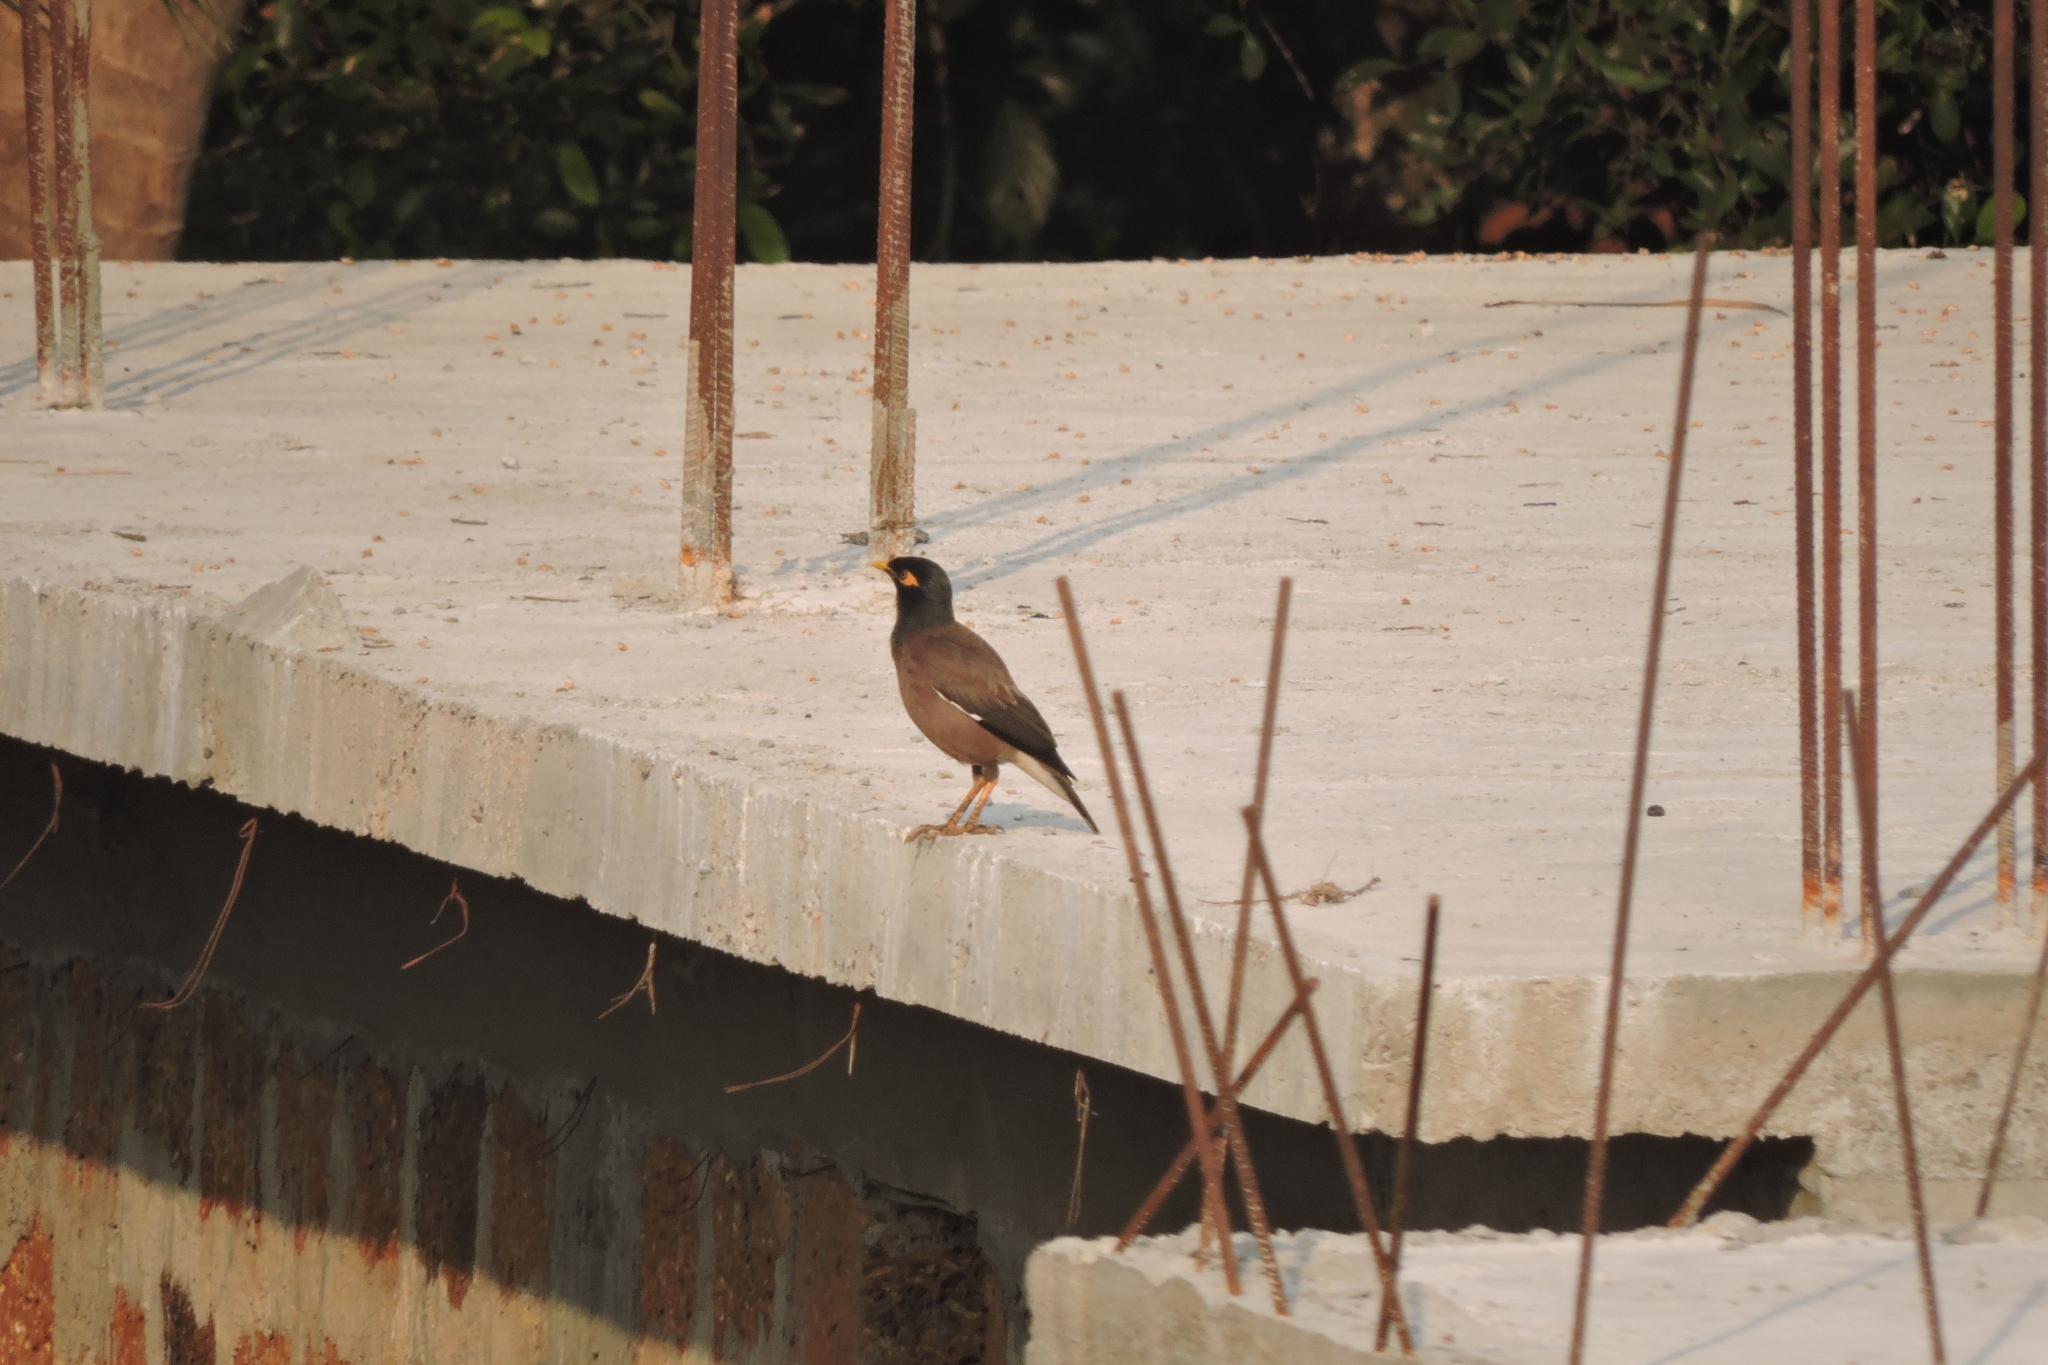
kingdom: Animalia
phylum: Chordata
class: Aves
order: Passeriformes
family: Sturnidae
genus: Acridotheres
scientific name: Acridotheres tristis
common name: Common myna
